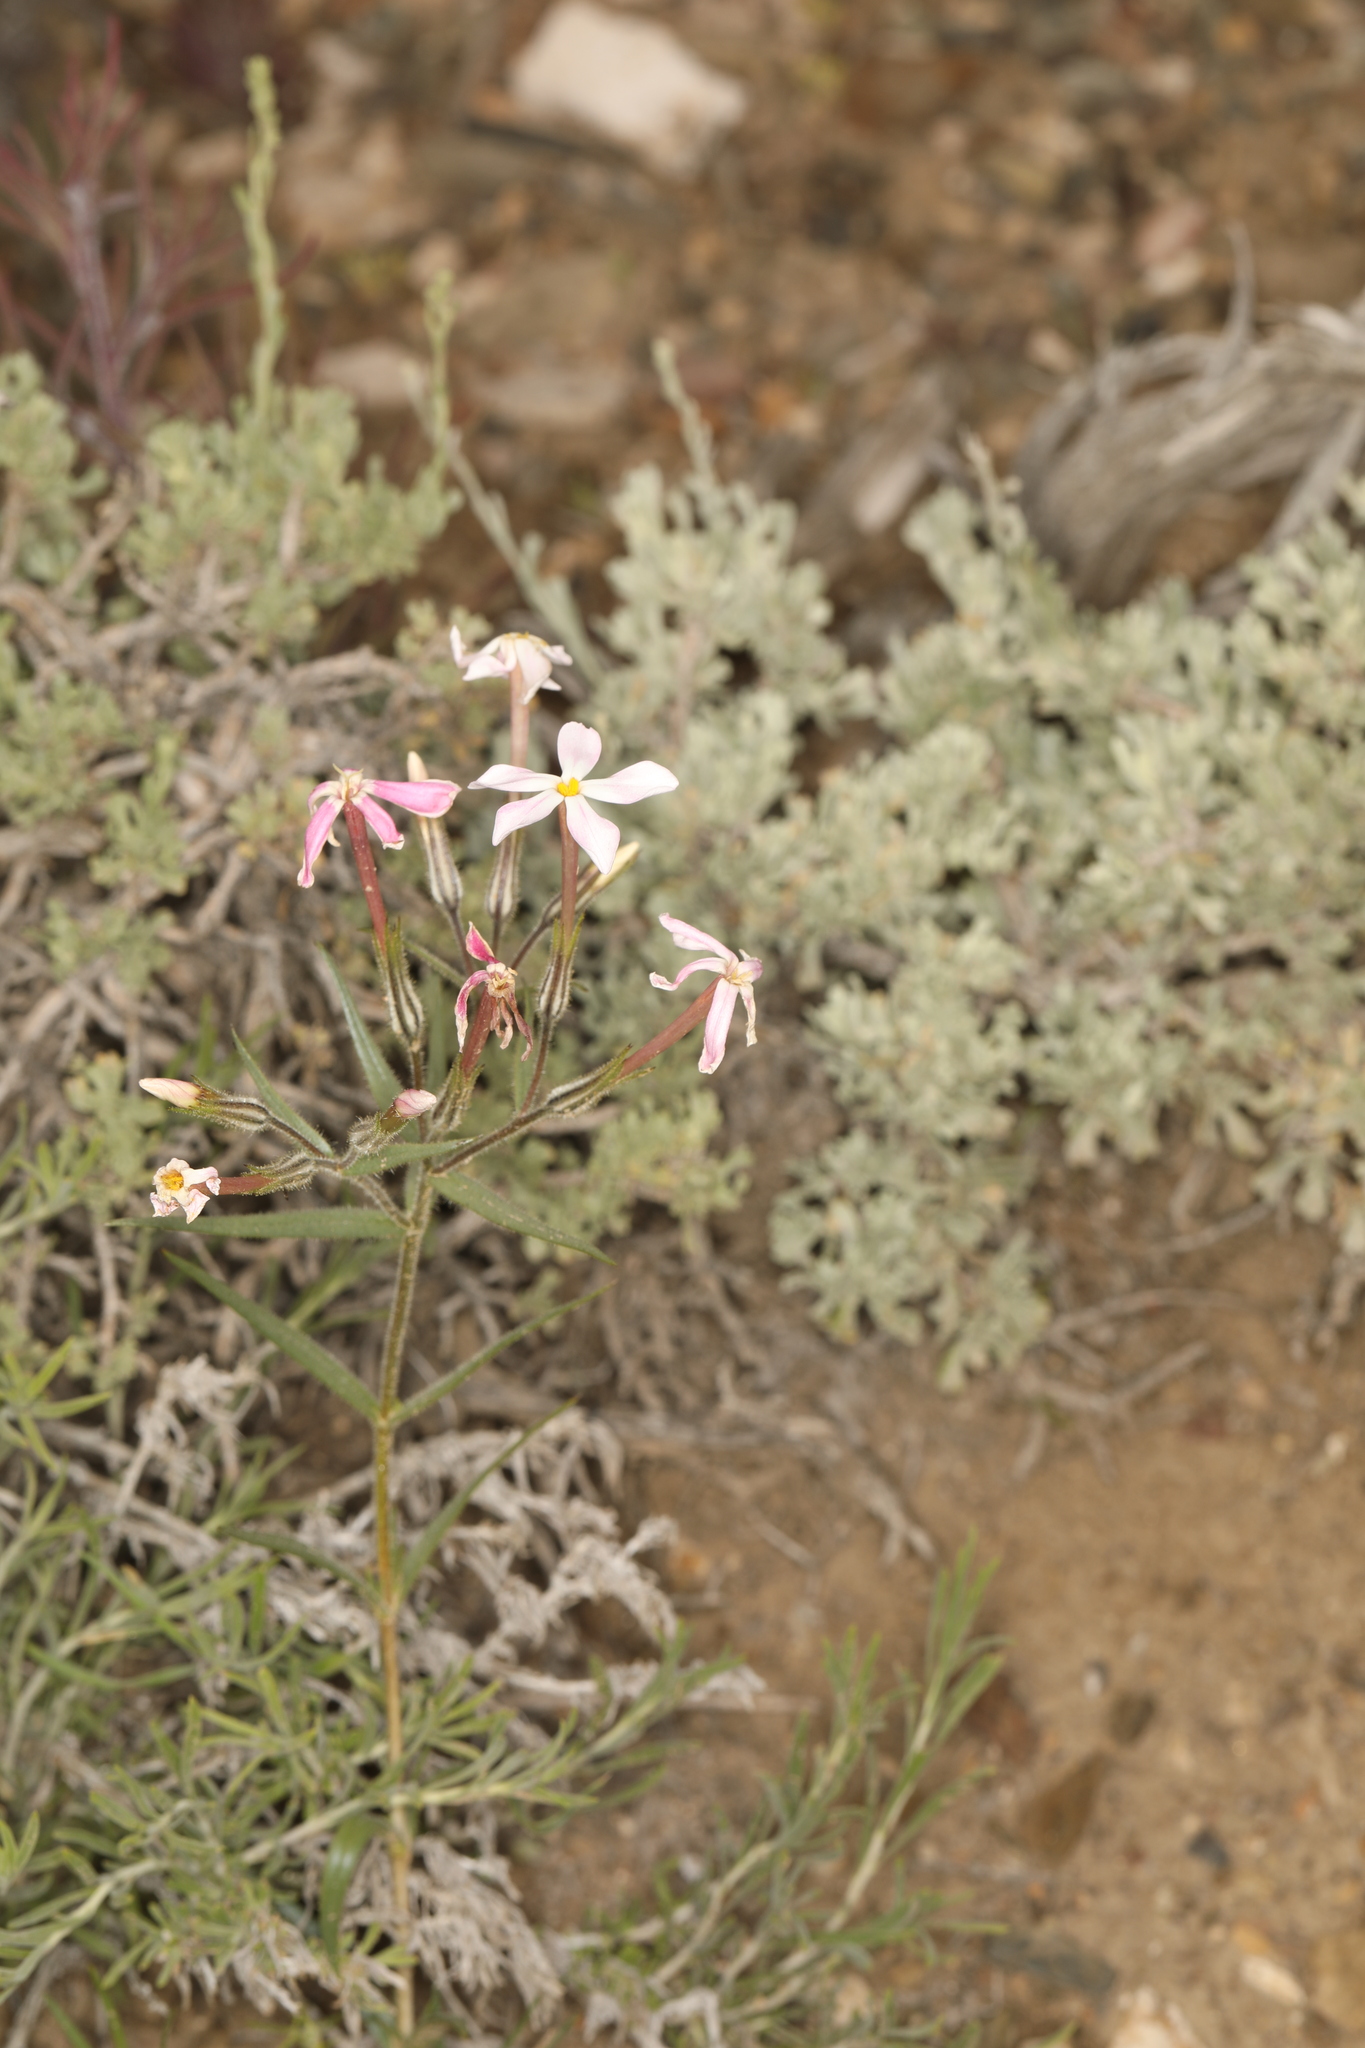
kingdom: Plantae
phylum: Tracheophyta
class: Magnoliopsida
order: Ericales
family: Polemoniaceae
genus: Phlox
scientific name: Phlox longifolia
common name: Longleaf phlox
